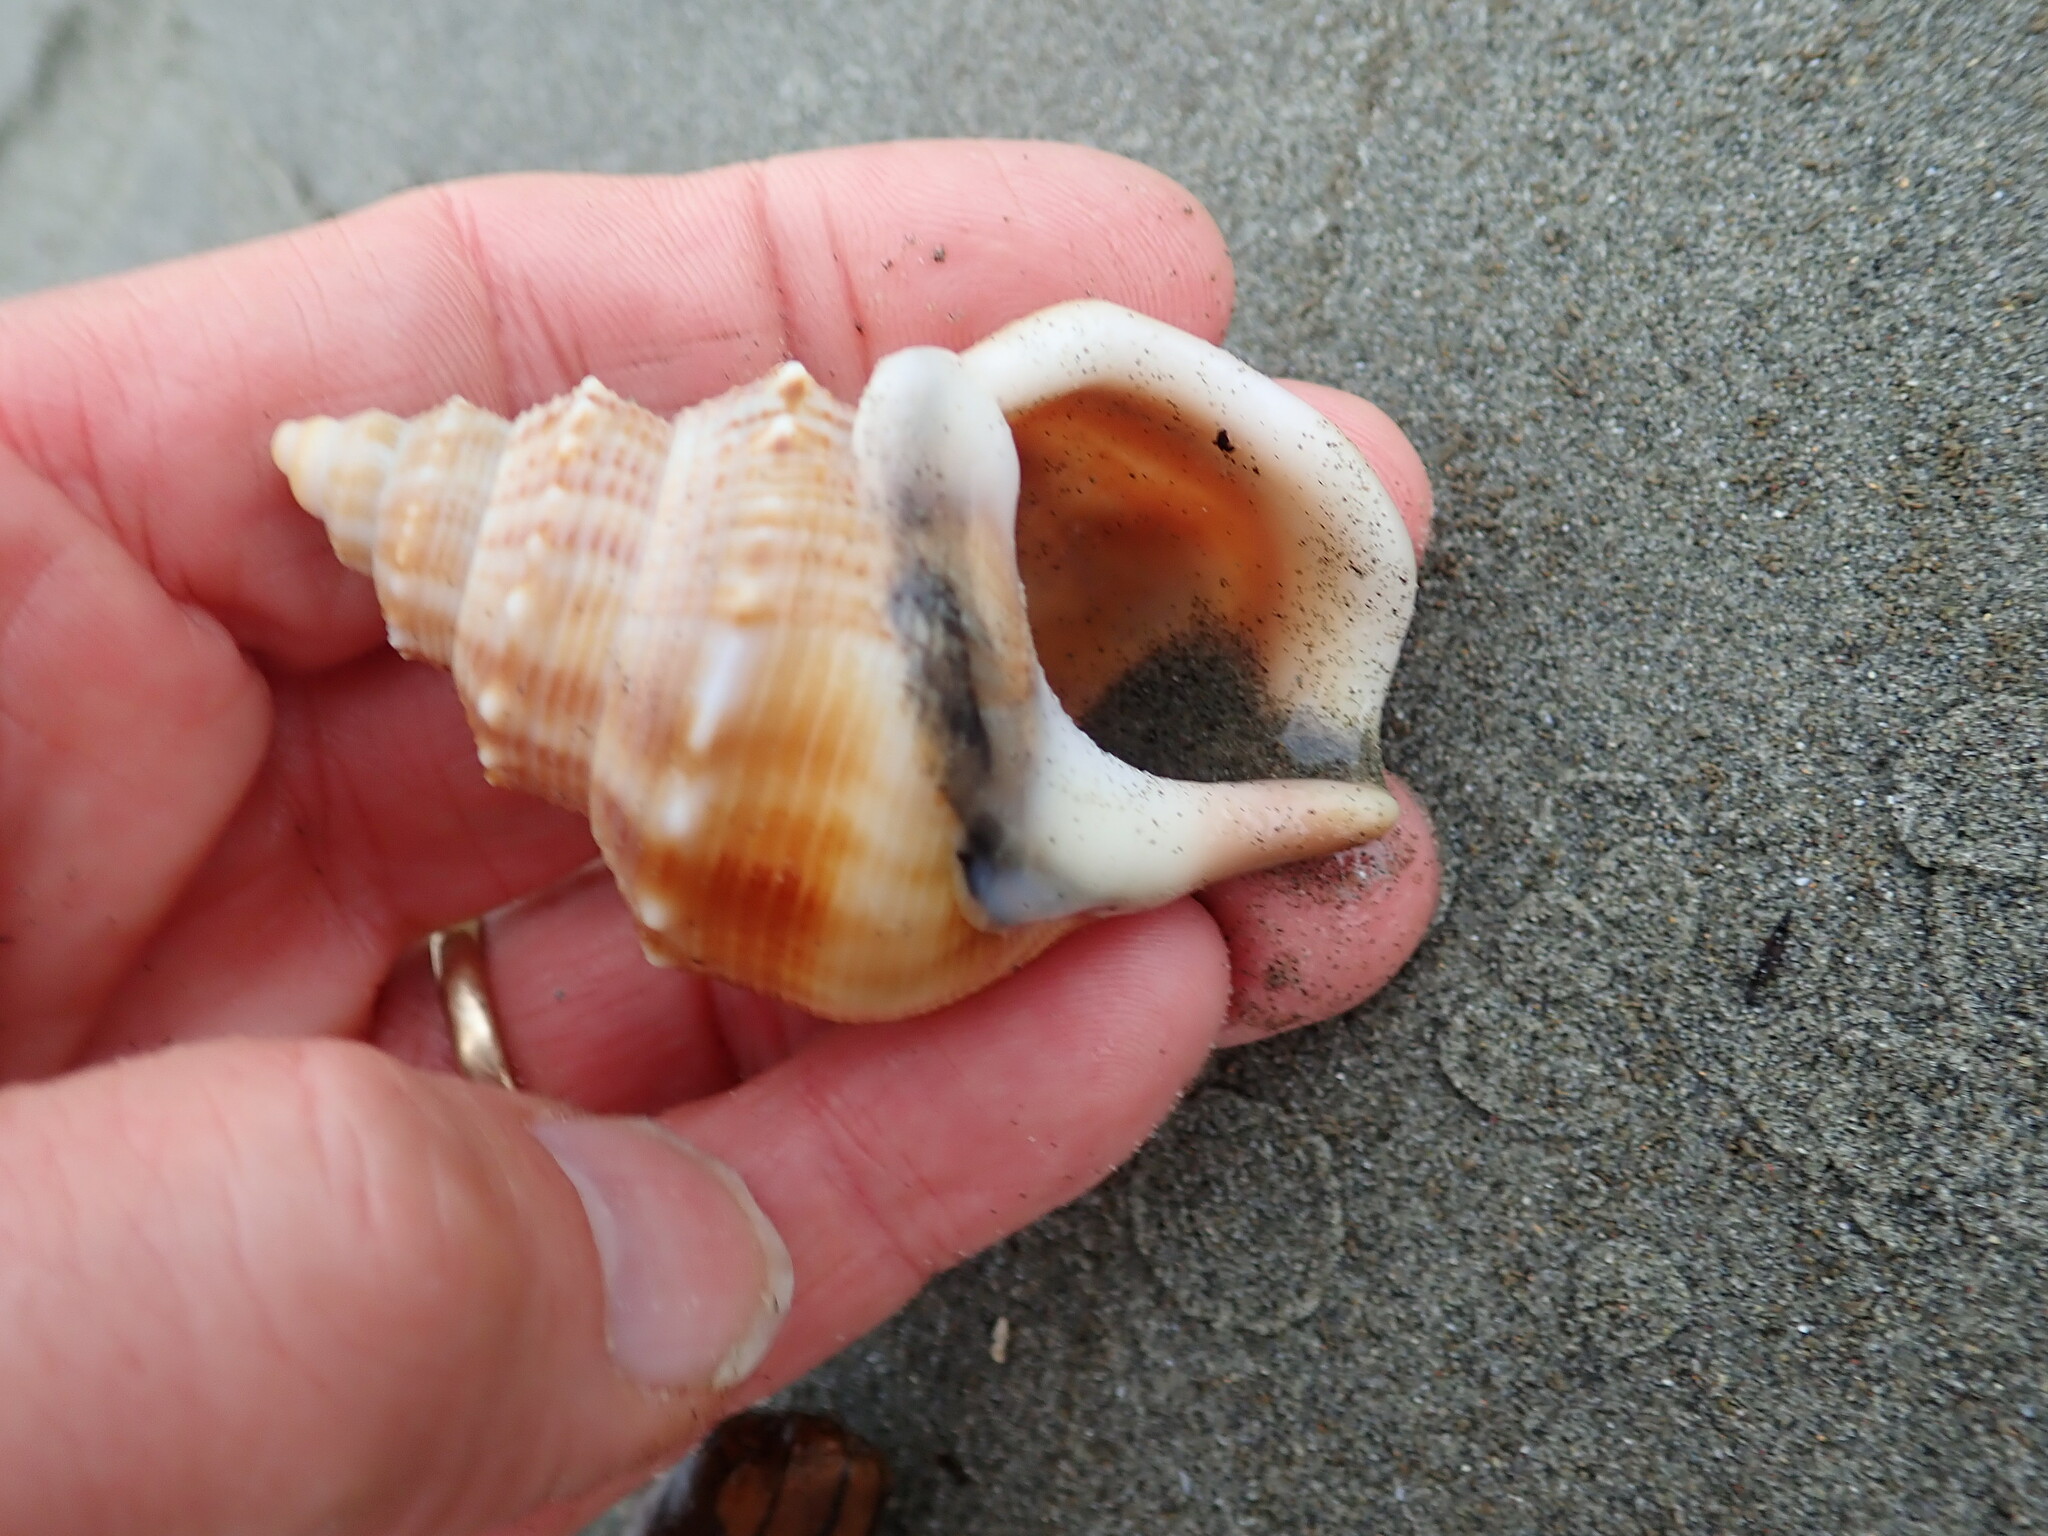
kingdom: Animalia
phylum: Mollusca
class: Gastropoda
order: Littorinimorpha
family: Struthiolariidae
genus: Struthiolaria
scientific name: Struthiolaria papulosa
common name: Large ostrich foot
